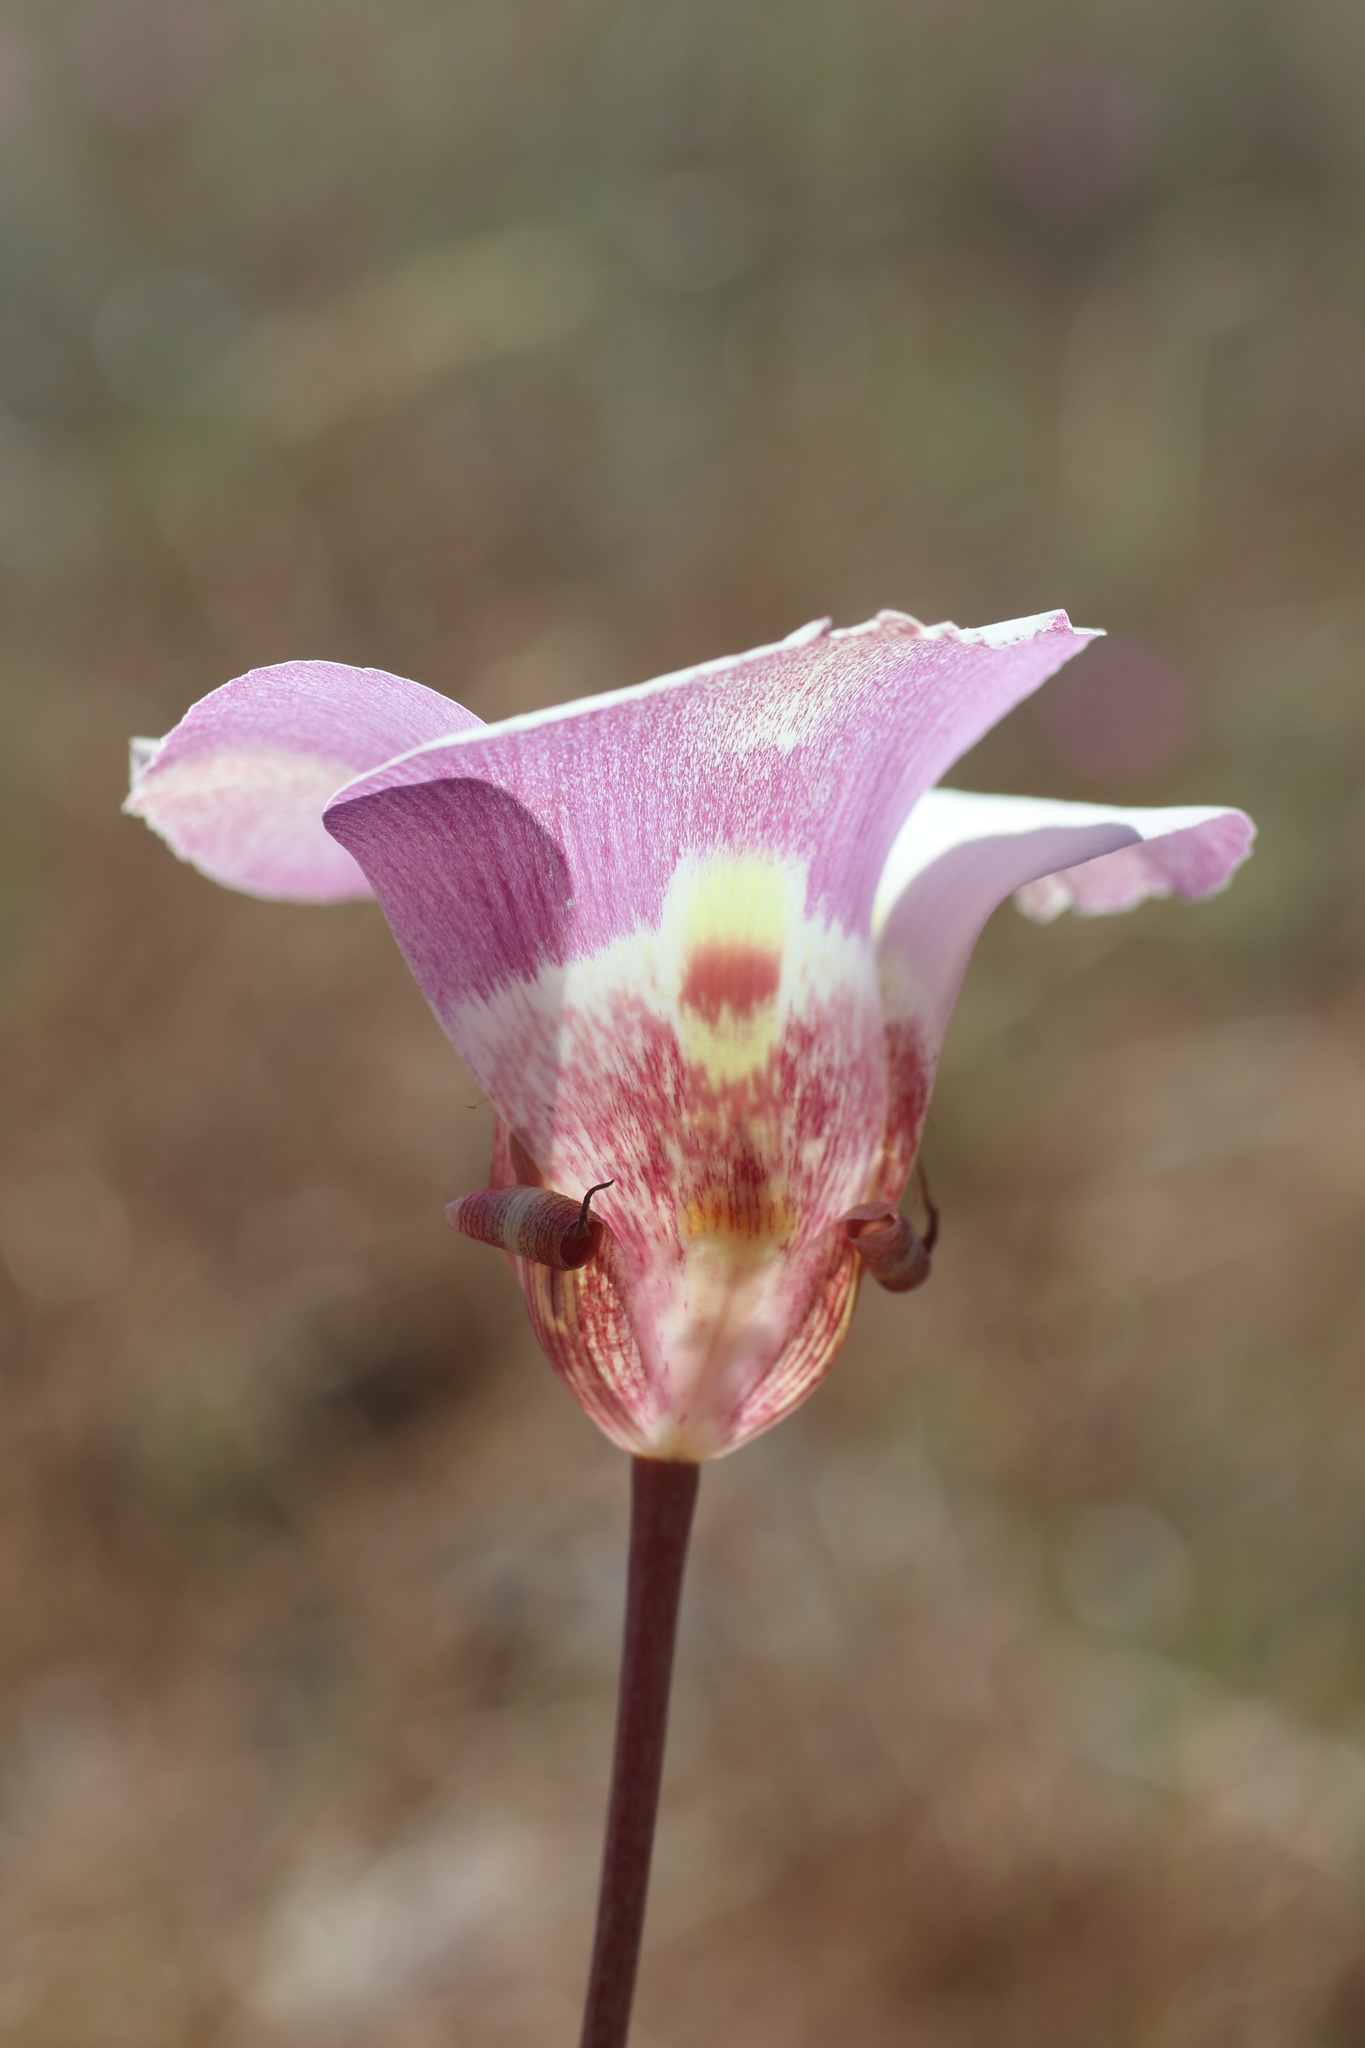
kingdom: Plantae
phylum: Tracheophyta
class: Liliopsida
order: Liliales
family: Liliaceae
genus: Calochortus
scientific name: Calochortus argillosus
